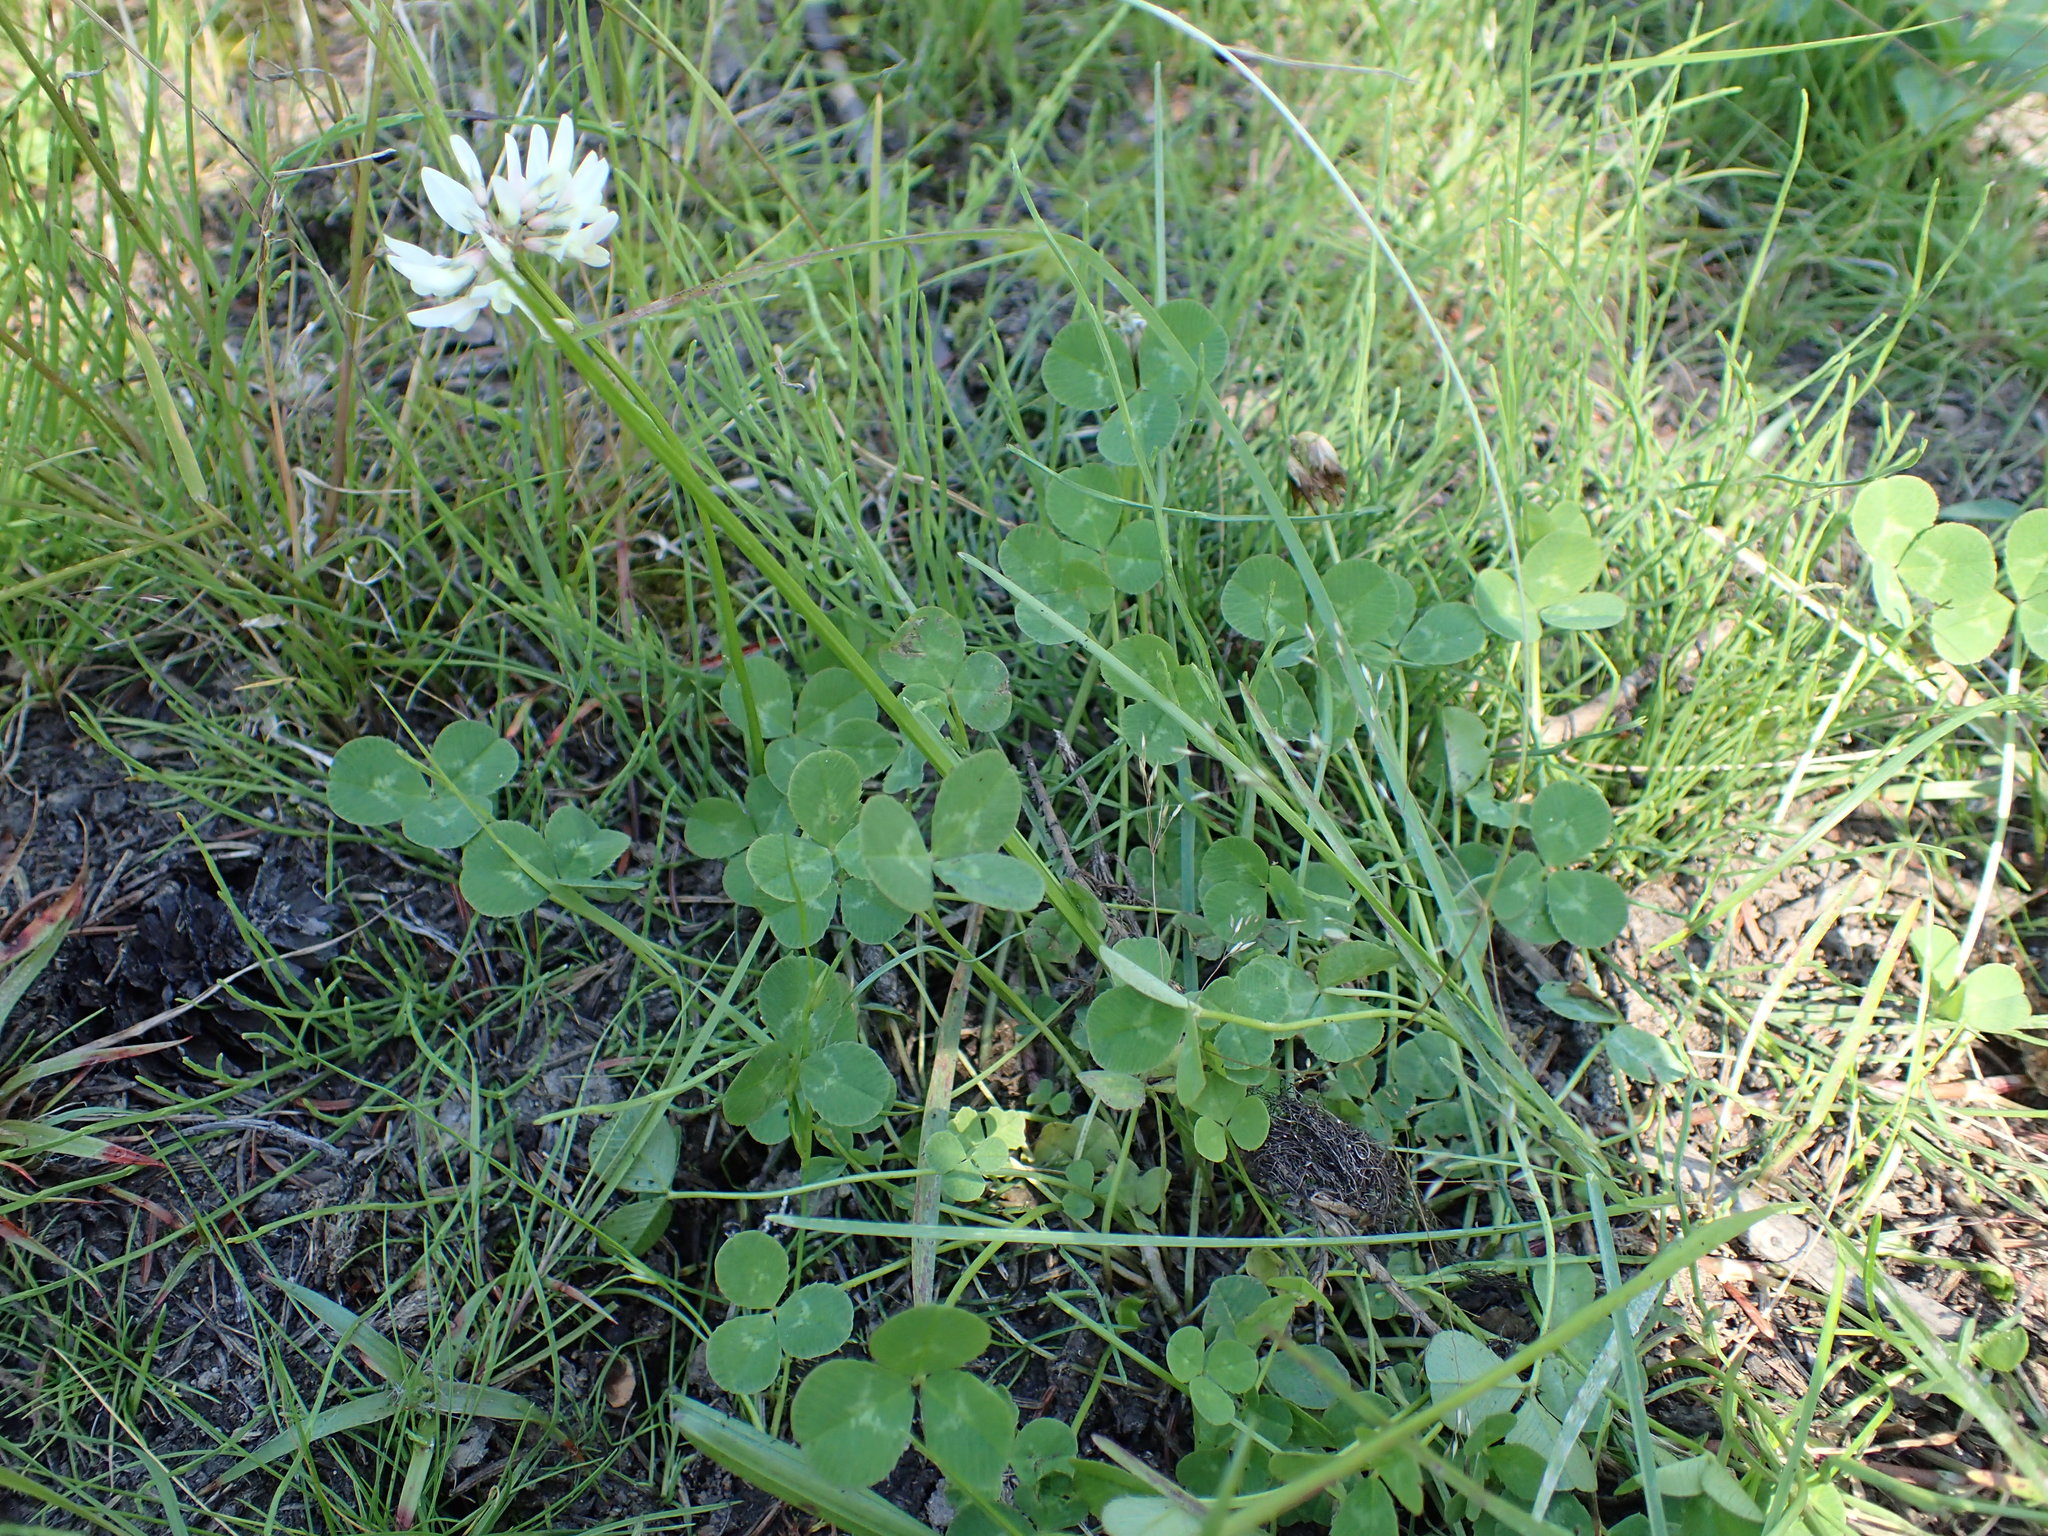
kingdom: Plantae
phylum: Tracheophyta
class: Magnoliopsida
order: Fabales
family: Fabaceae
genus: Trifolium
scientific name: Trifolium repens
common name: White clover
